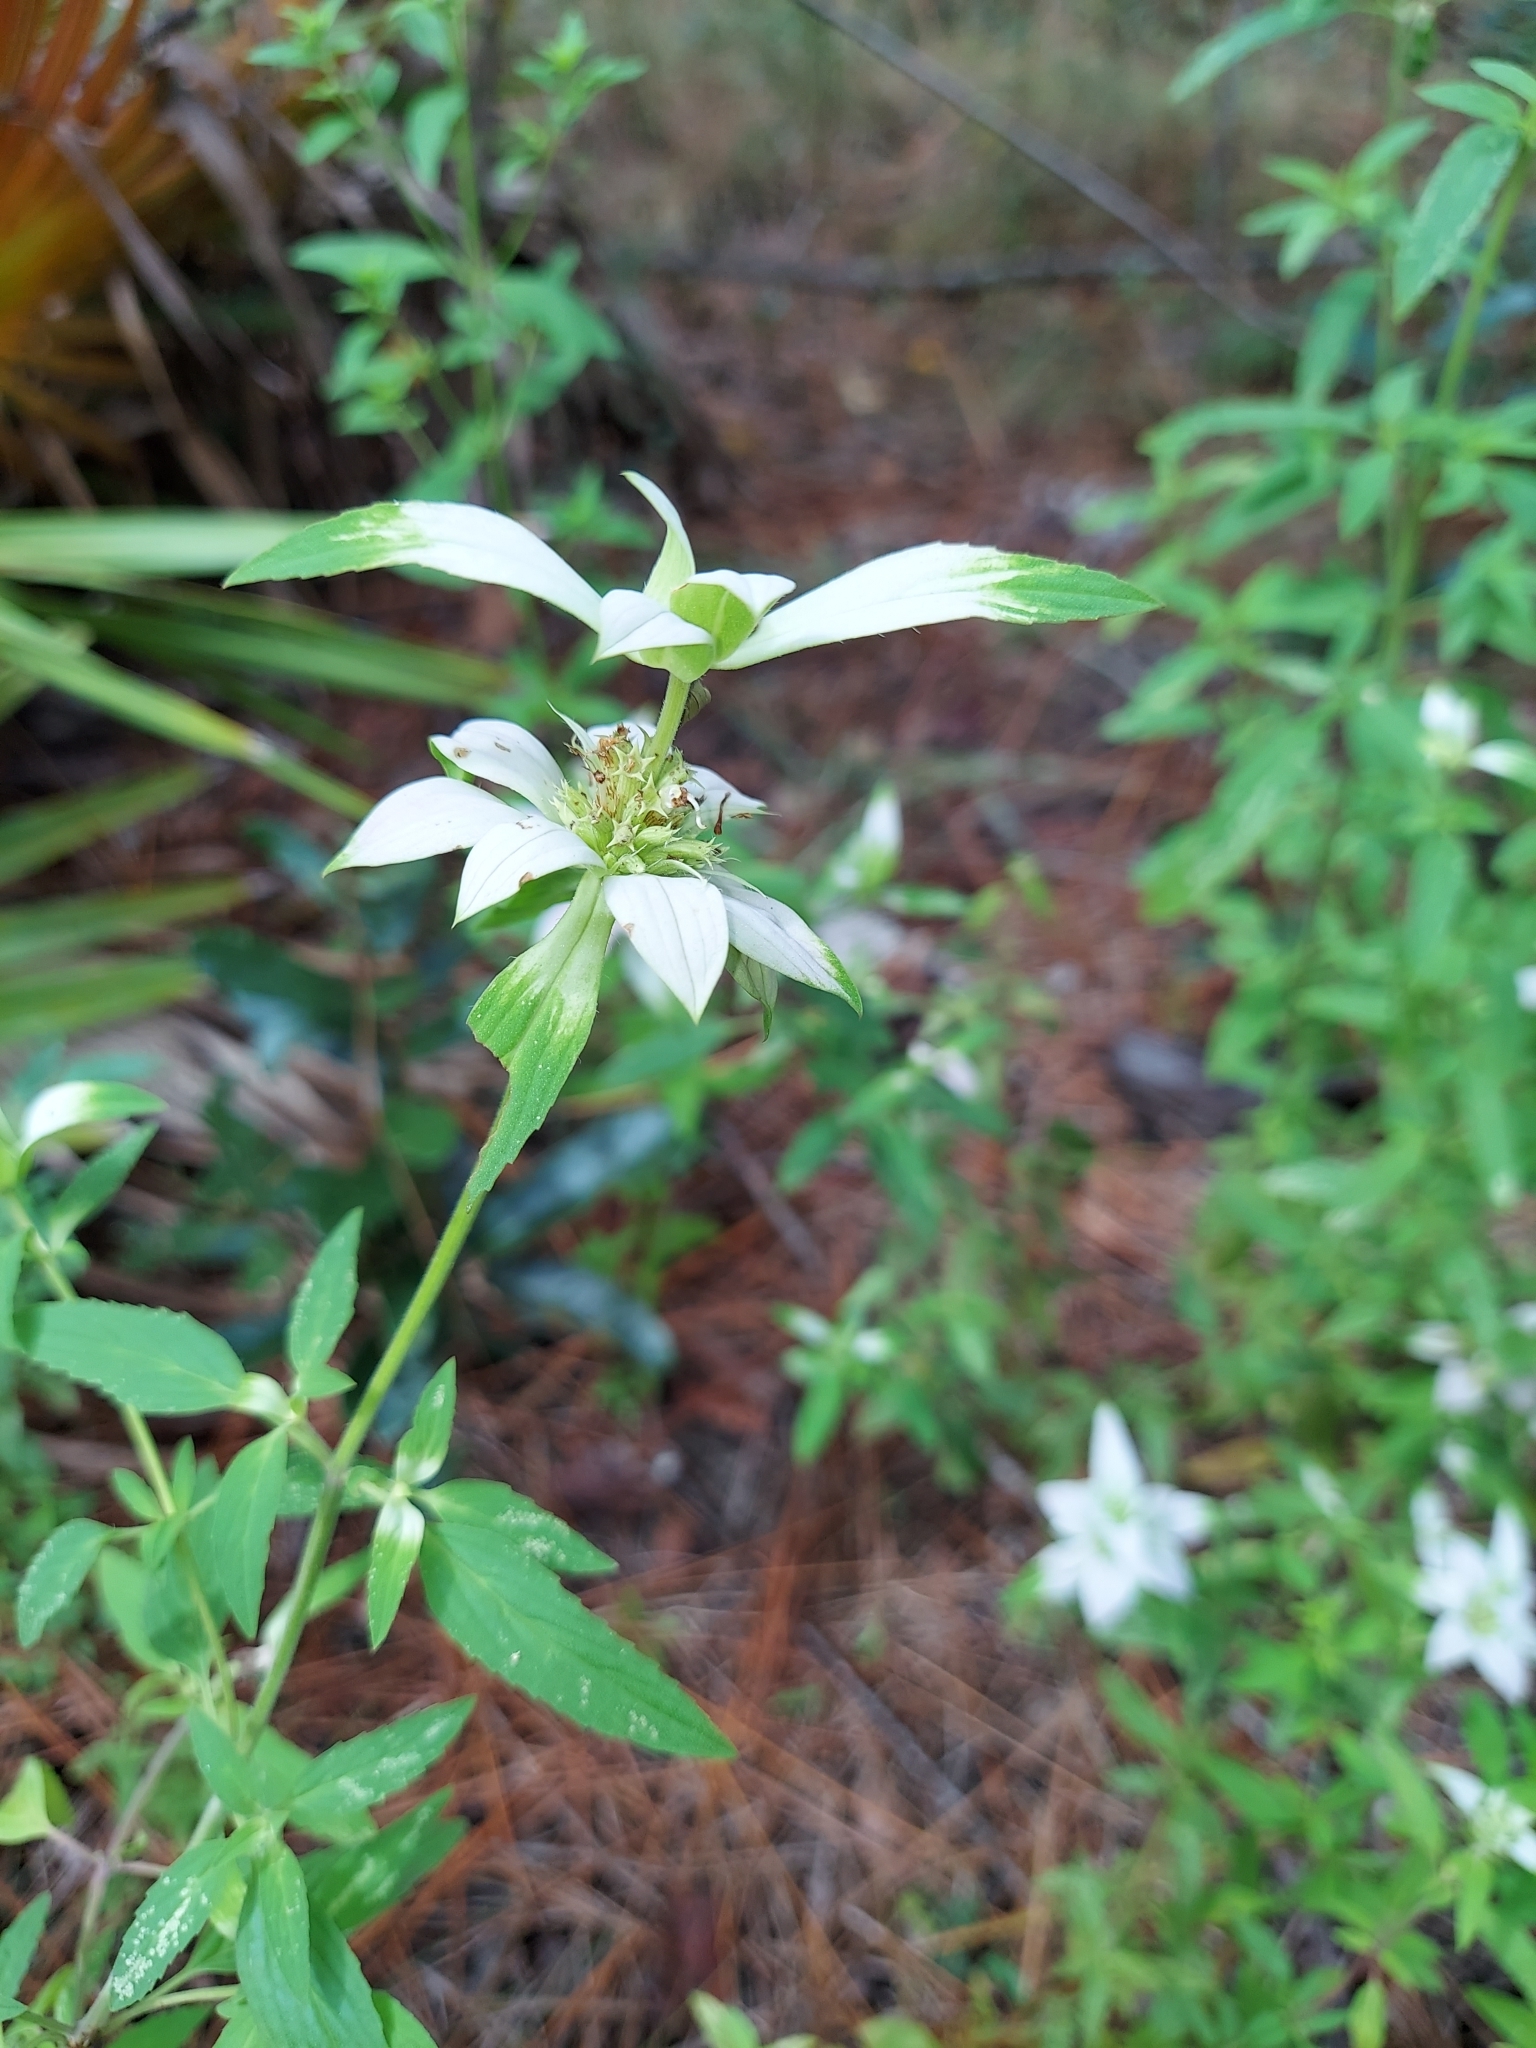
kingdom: Plantae
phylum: Tracheophyta
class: Magnoliopsida
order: Lamiales
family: Lamiaceae
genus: Monarda
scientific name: Monarda punctata
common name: Dotted monarda
